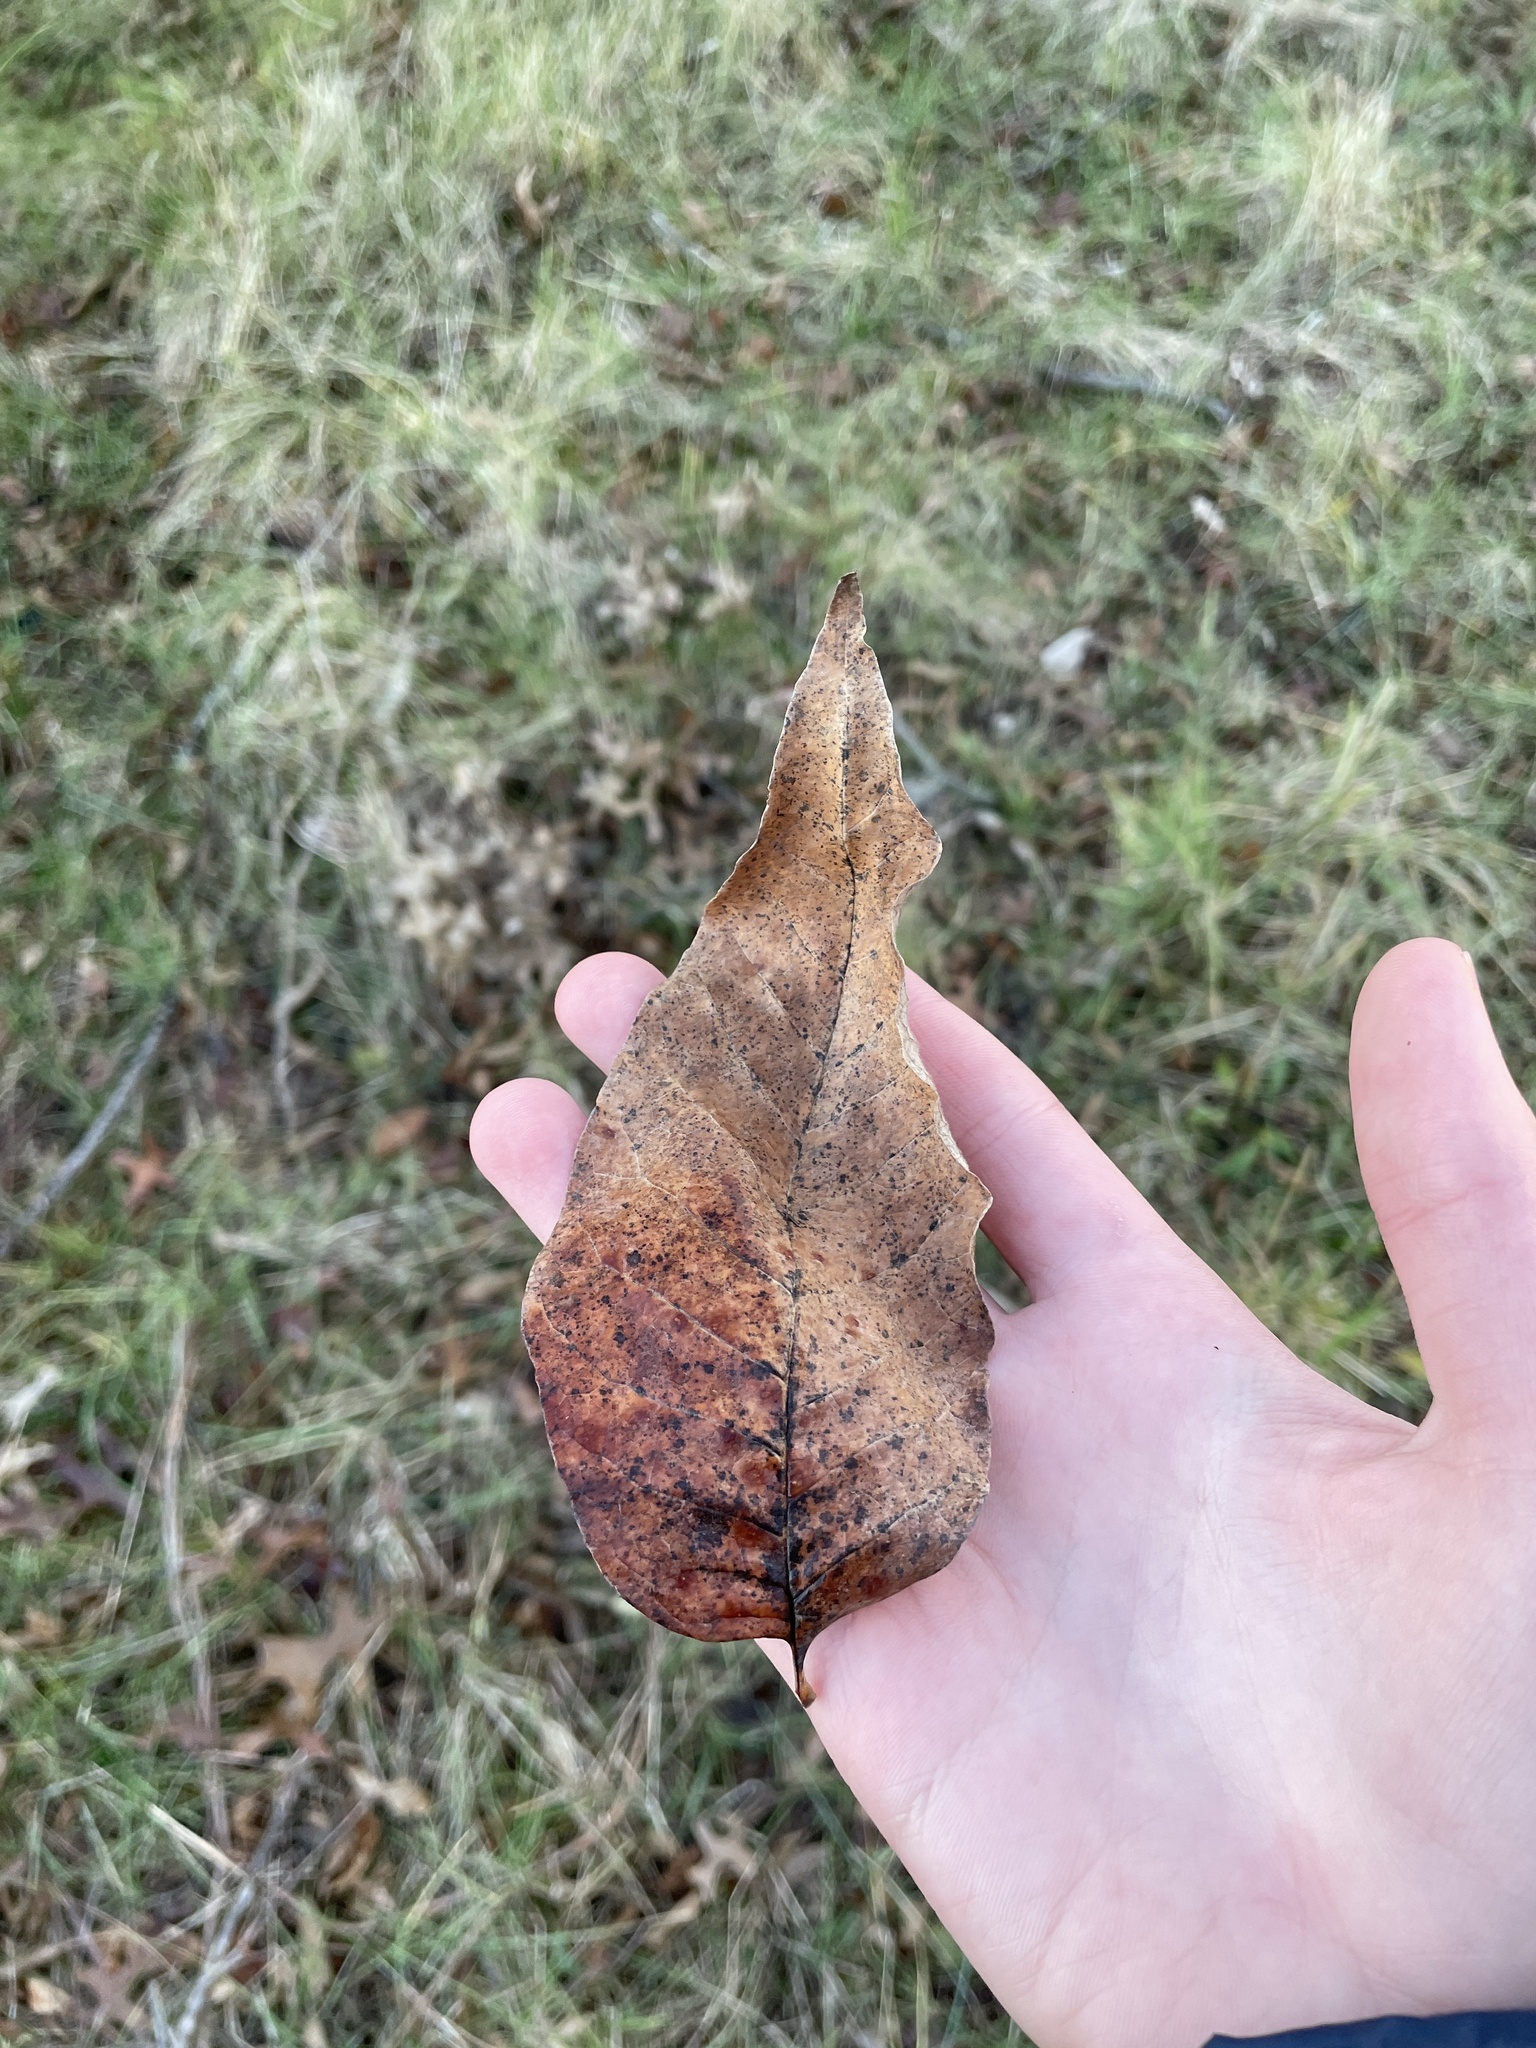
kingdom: Plantae
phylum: Tracheophyta
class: Magnoliopsida
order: Fagales
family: Juglandaceae
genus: Carya
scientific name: Carya cordiformis
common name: Bitternut hickory
